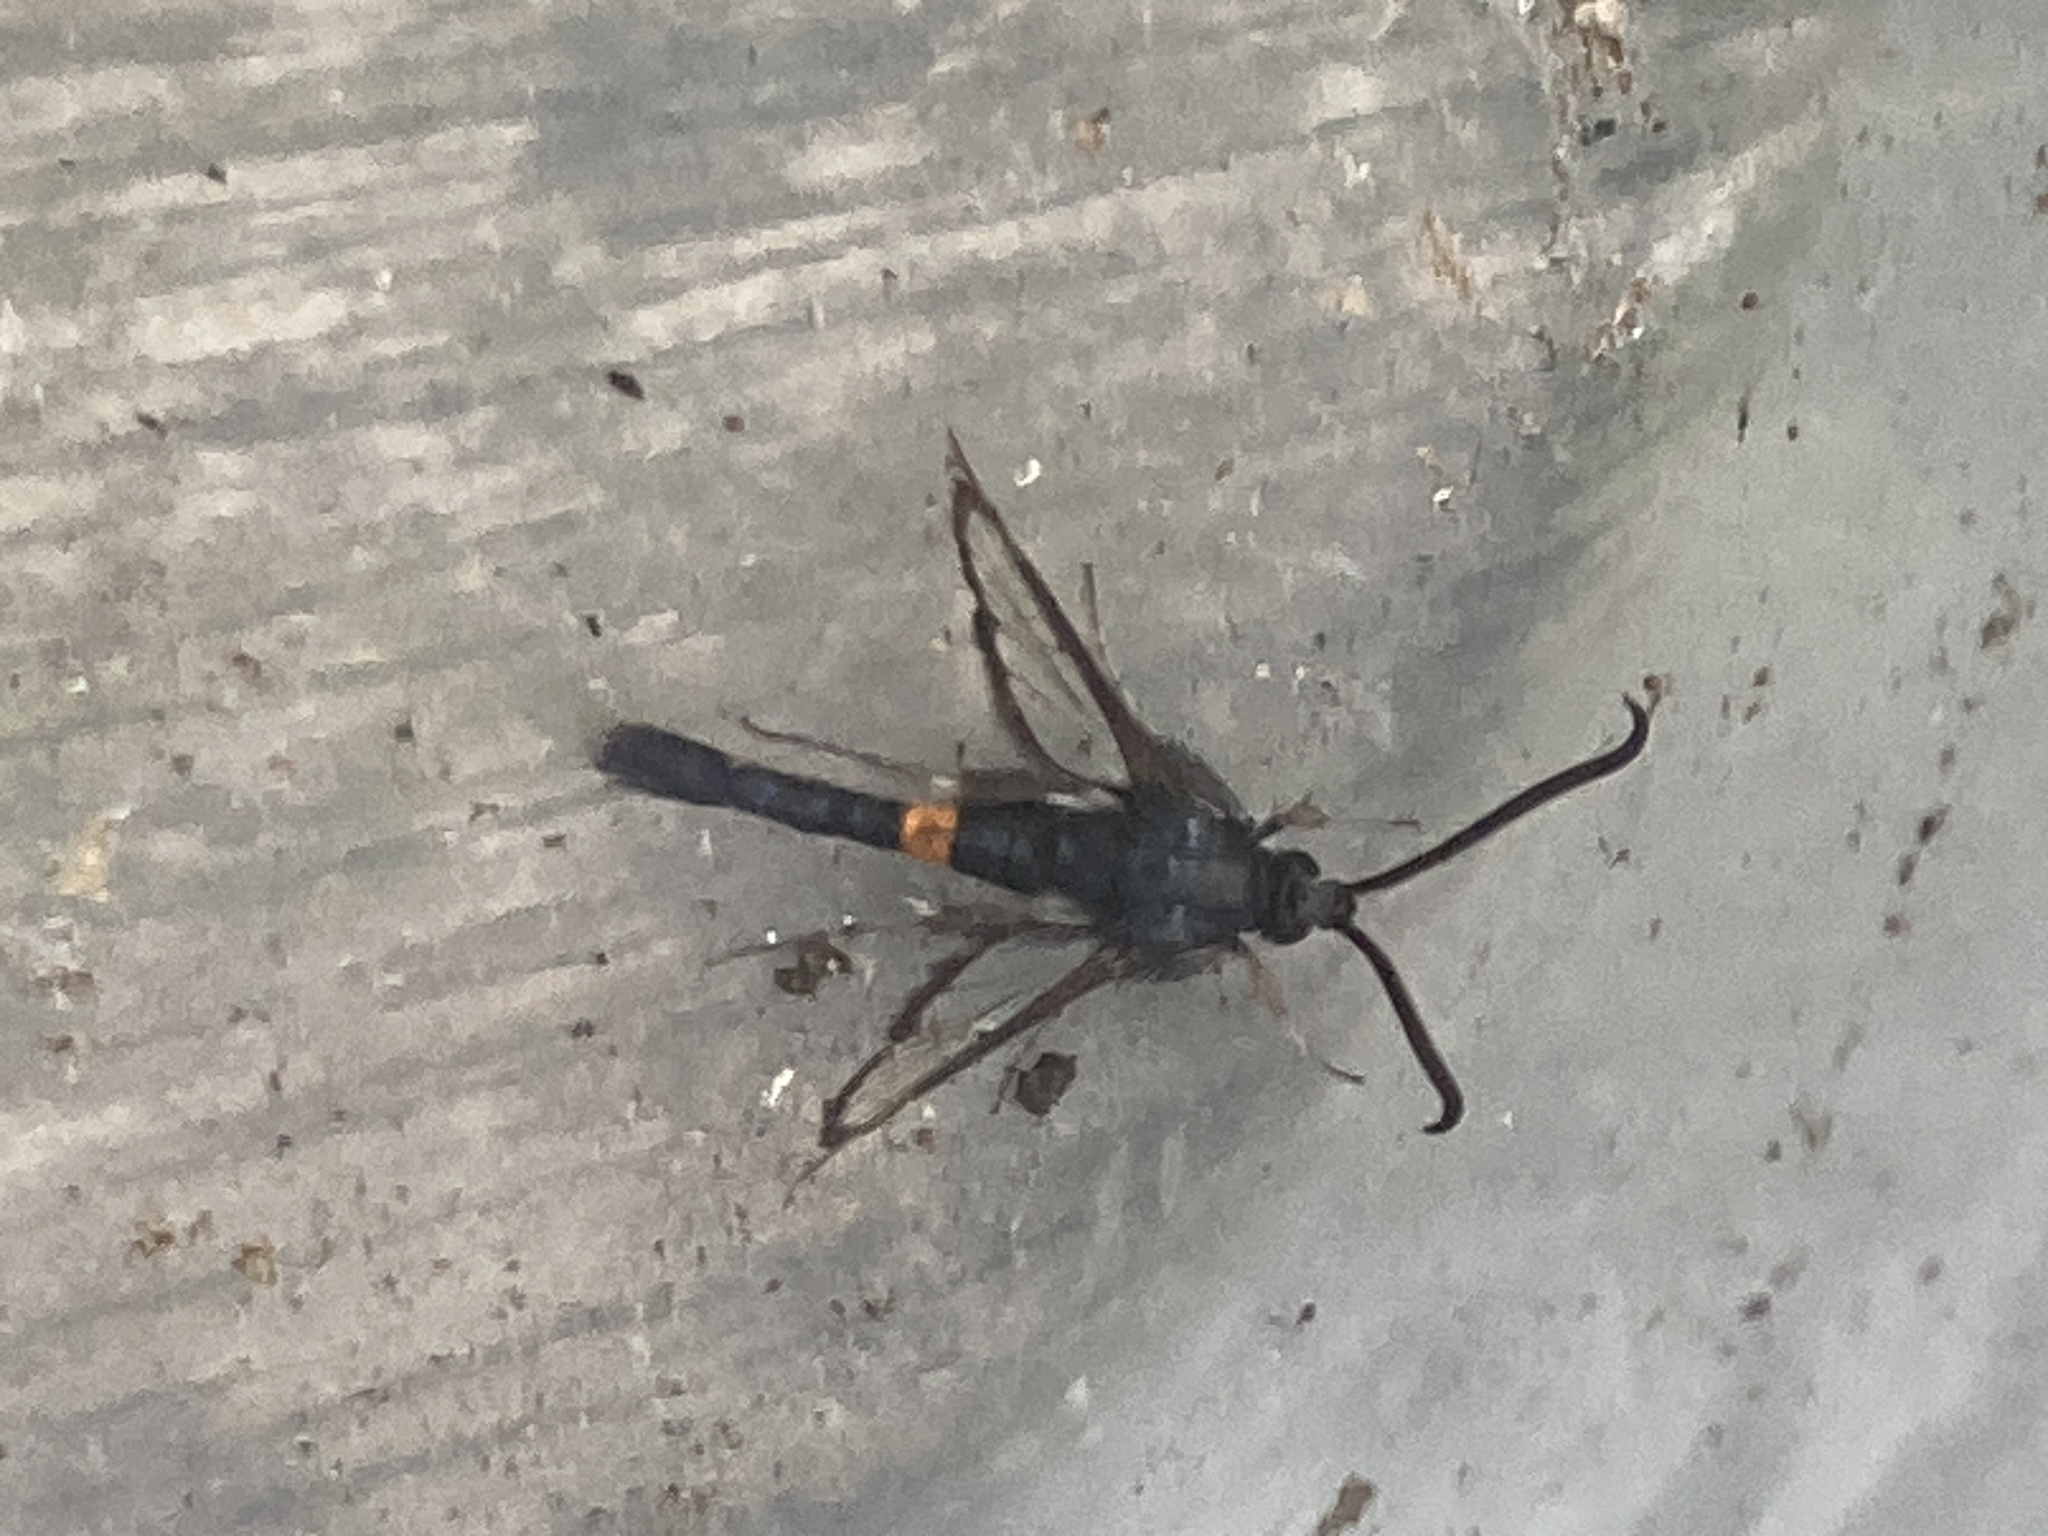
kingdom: Animalia
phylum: Arthropoda
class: Insecta
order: Lepidoptera
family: Sesiidae
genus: Synanthedon
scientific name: Synanthedon myopaeformis
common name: Red-belted clearwing
